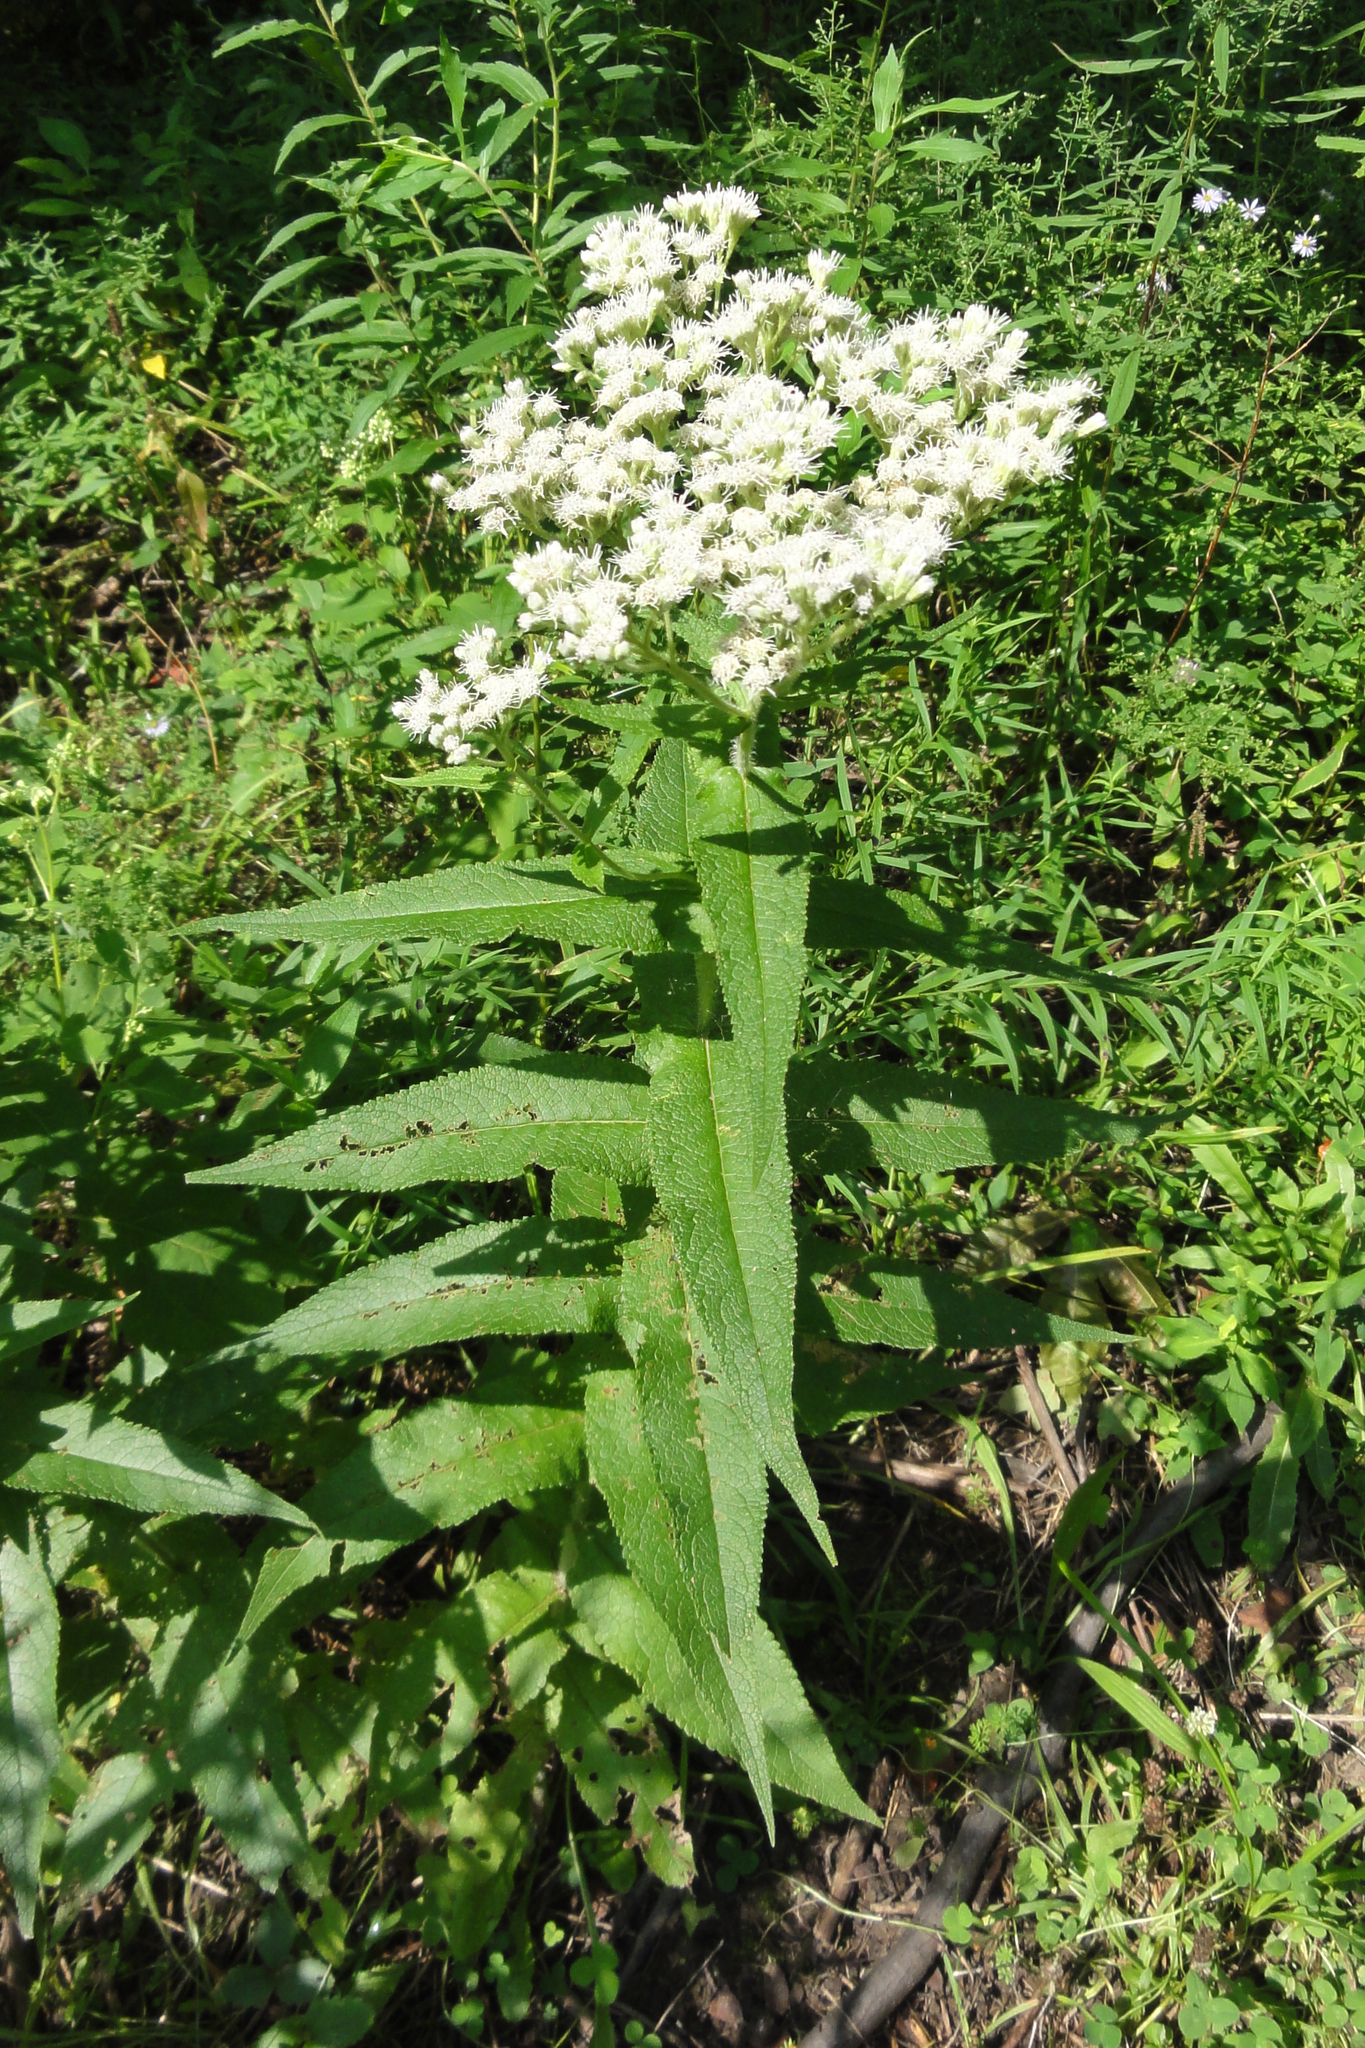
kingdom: Plantae
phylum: Tracheophyta
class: Magnoliopsida
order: Asterales
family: Asteraceae
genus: Eupatorium
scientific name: Eupatorium perfoliatum
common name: Boneset
